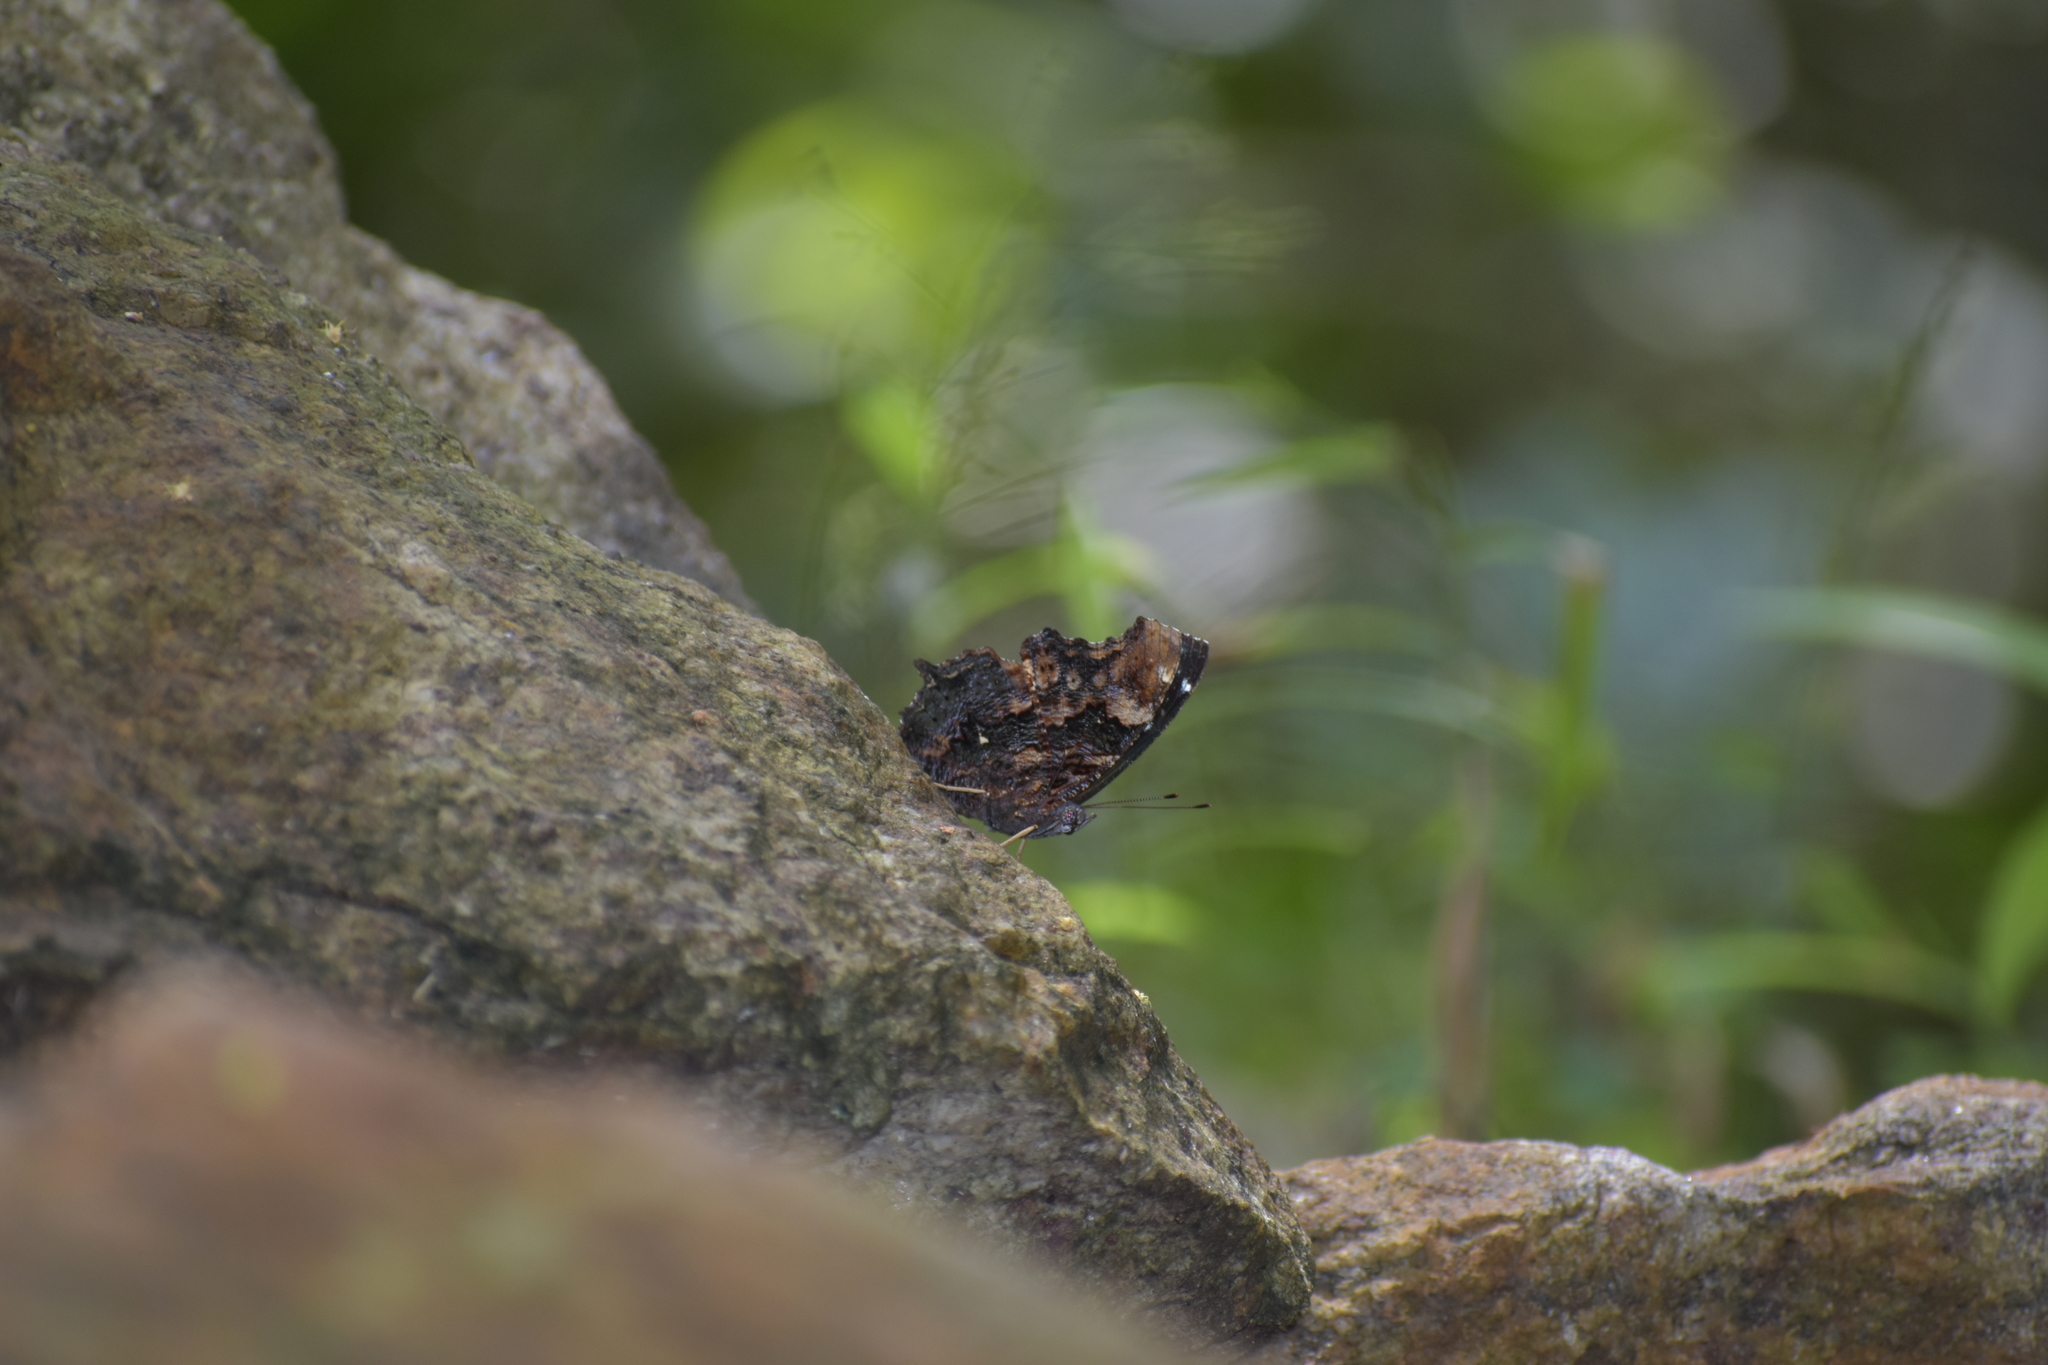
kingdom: Animalia
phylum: Arthropoda
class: Insecta
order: Lepidoptera
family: Nymphalidae
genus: Vanessa
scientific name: Vanessa Kaniska canace
